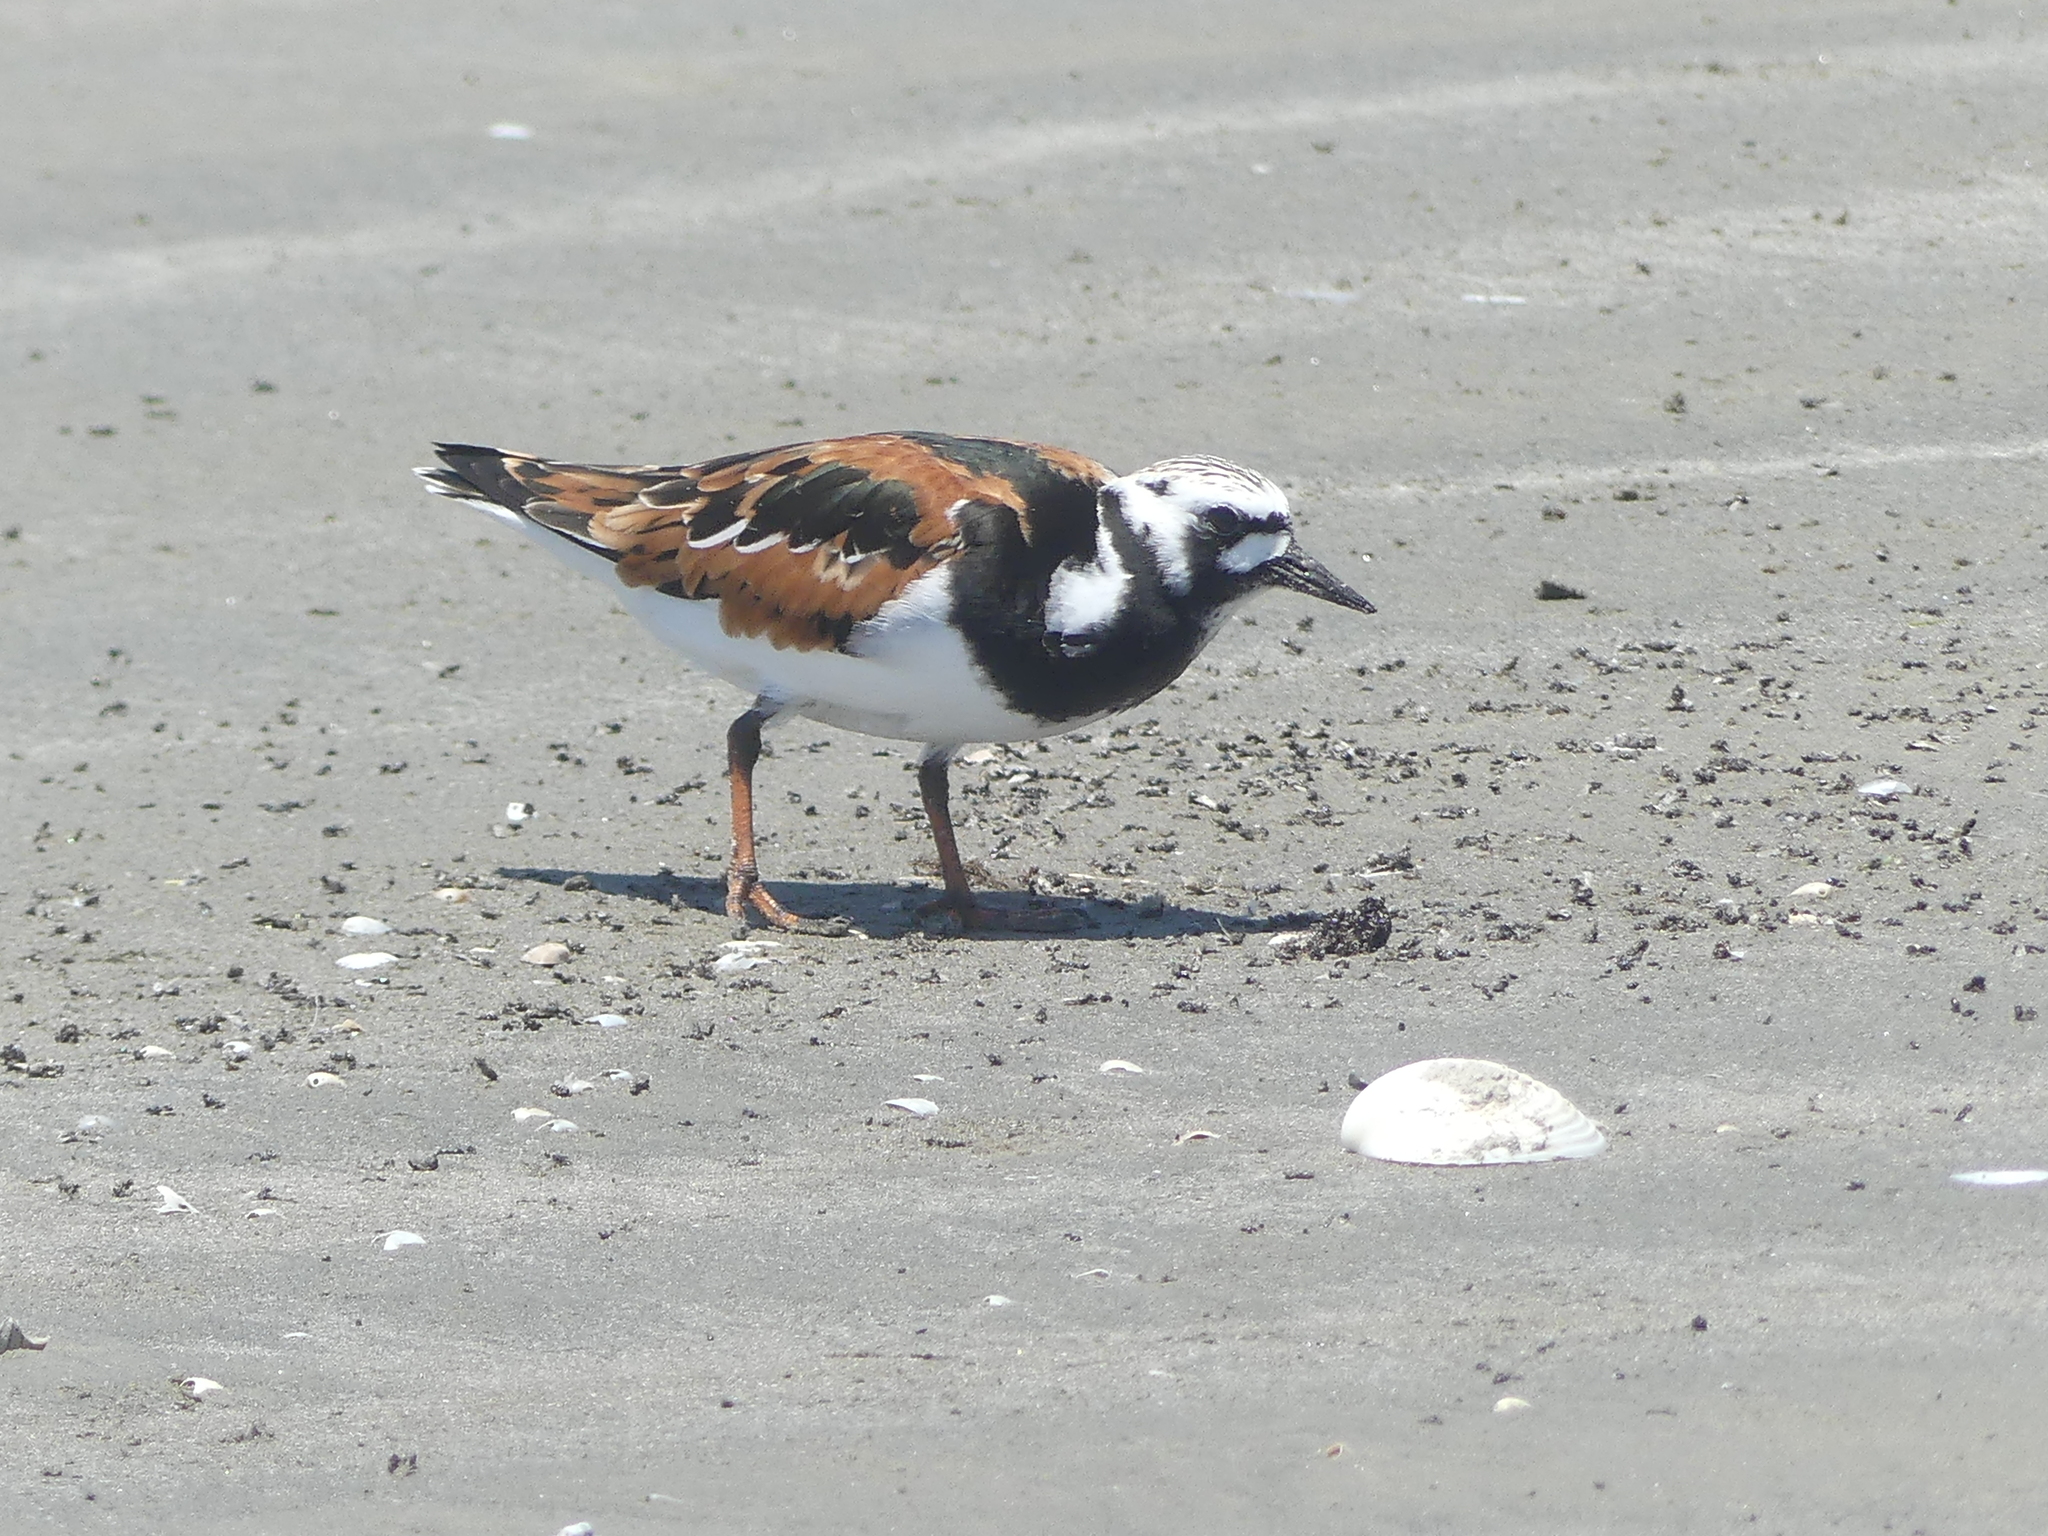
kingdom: Animalia
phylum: Chordata
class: Aves
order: Charadriiformes
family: Scolopacidae
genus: Arenaria
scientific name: Arenaria interpres
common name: Ruddy turnstone
